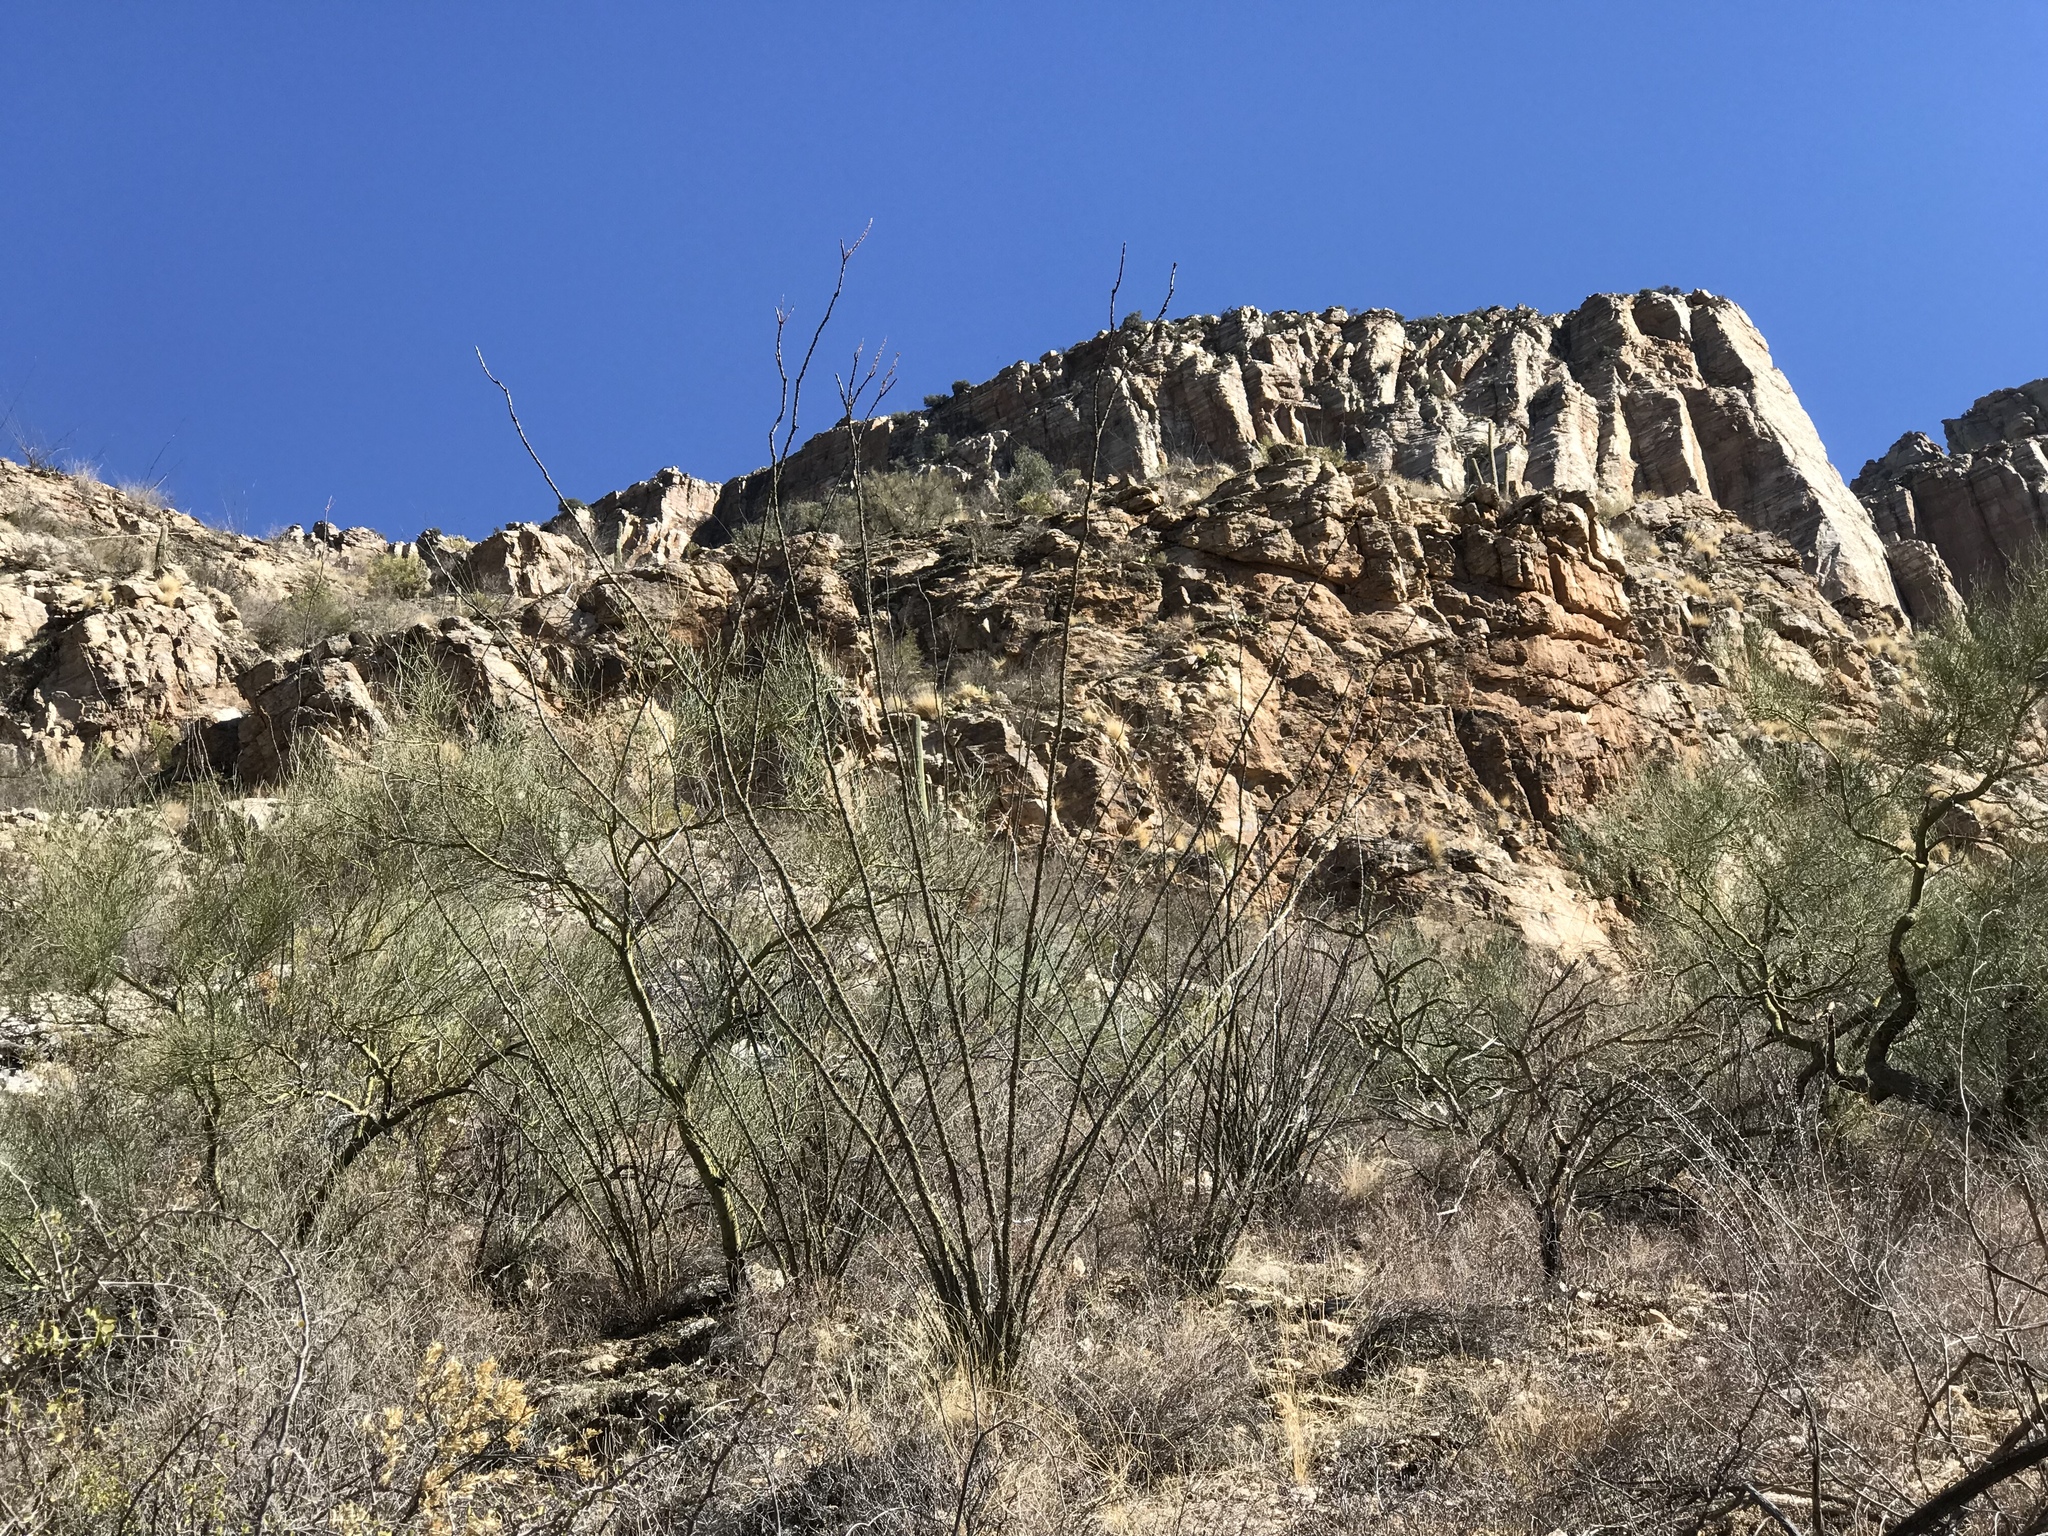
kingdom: Plantae
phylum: Tracheophyta
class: Magnoliopsida
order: Ericales
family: Fouquieriaceae
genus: Fouquieria
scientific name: Fouquieria splendens
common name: Vine-cactus
